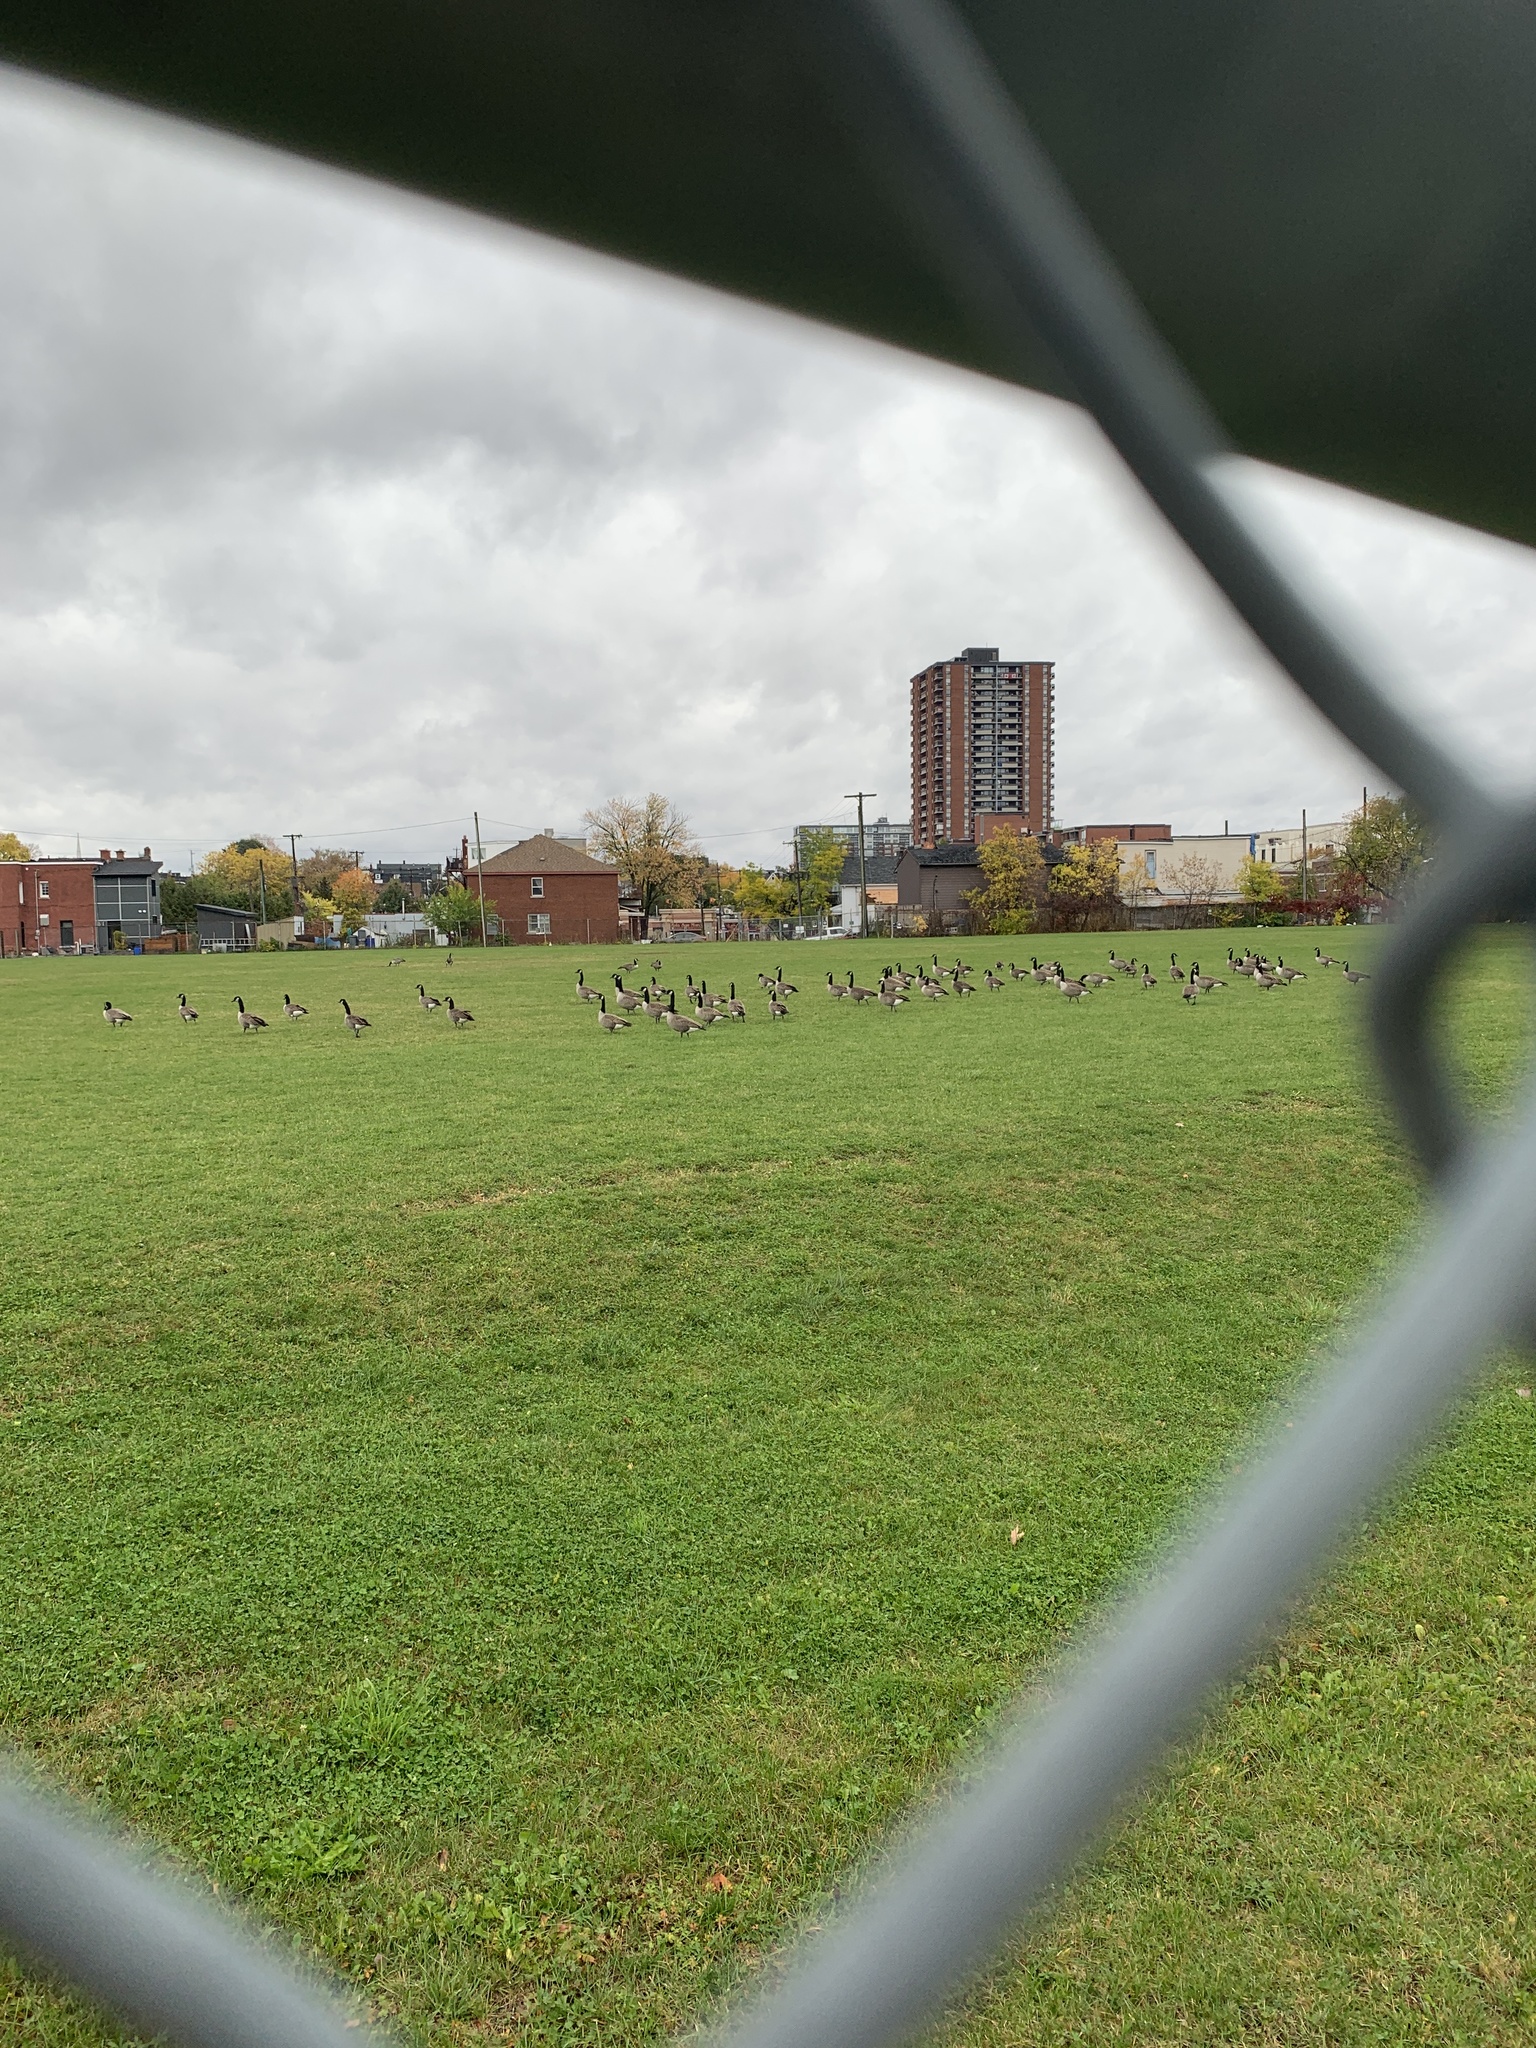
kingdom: Animalia
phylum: Chordata
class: Aves
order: Anseriformes
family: Anatidae
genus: Branta
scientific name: Branta canadensis
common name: Canada goose
